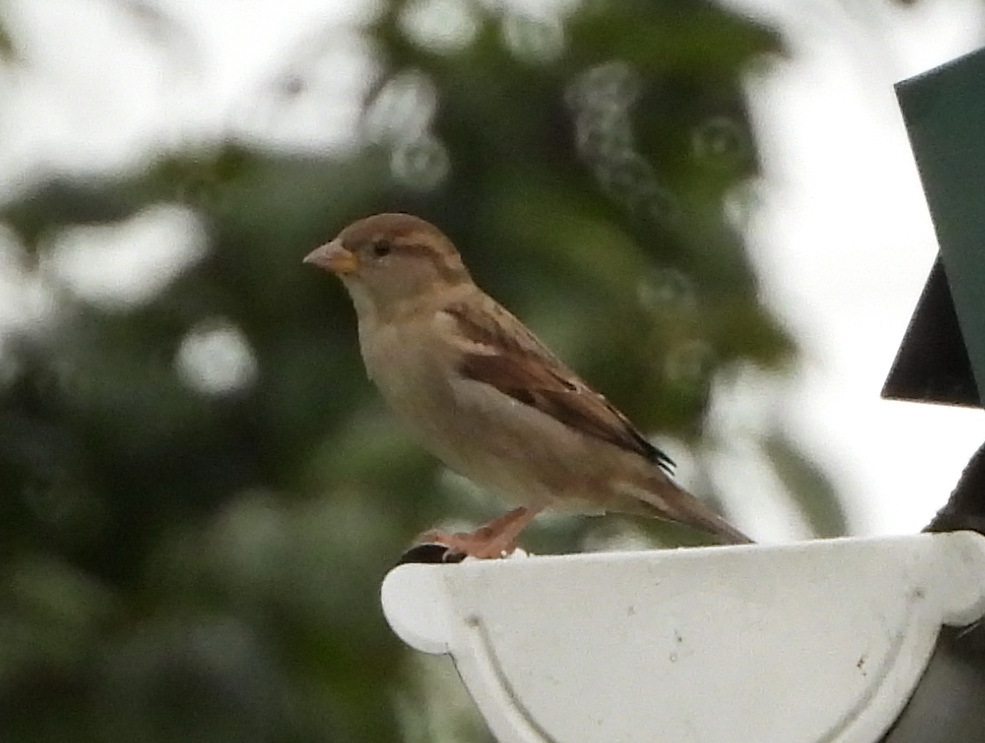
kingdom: Animalia
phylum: Chordata
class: Aves
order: Passeriformes
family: Passeridae
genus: Passer
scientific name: Passer domesticus
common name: House sparrow
